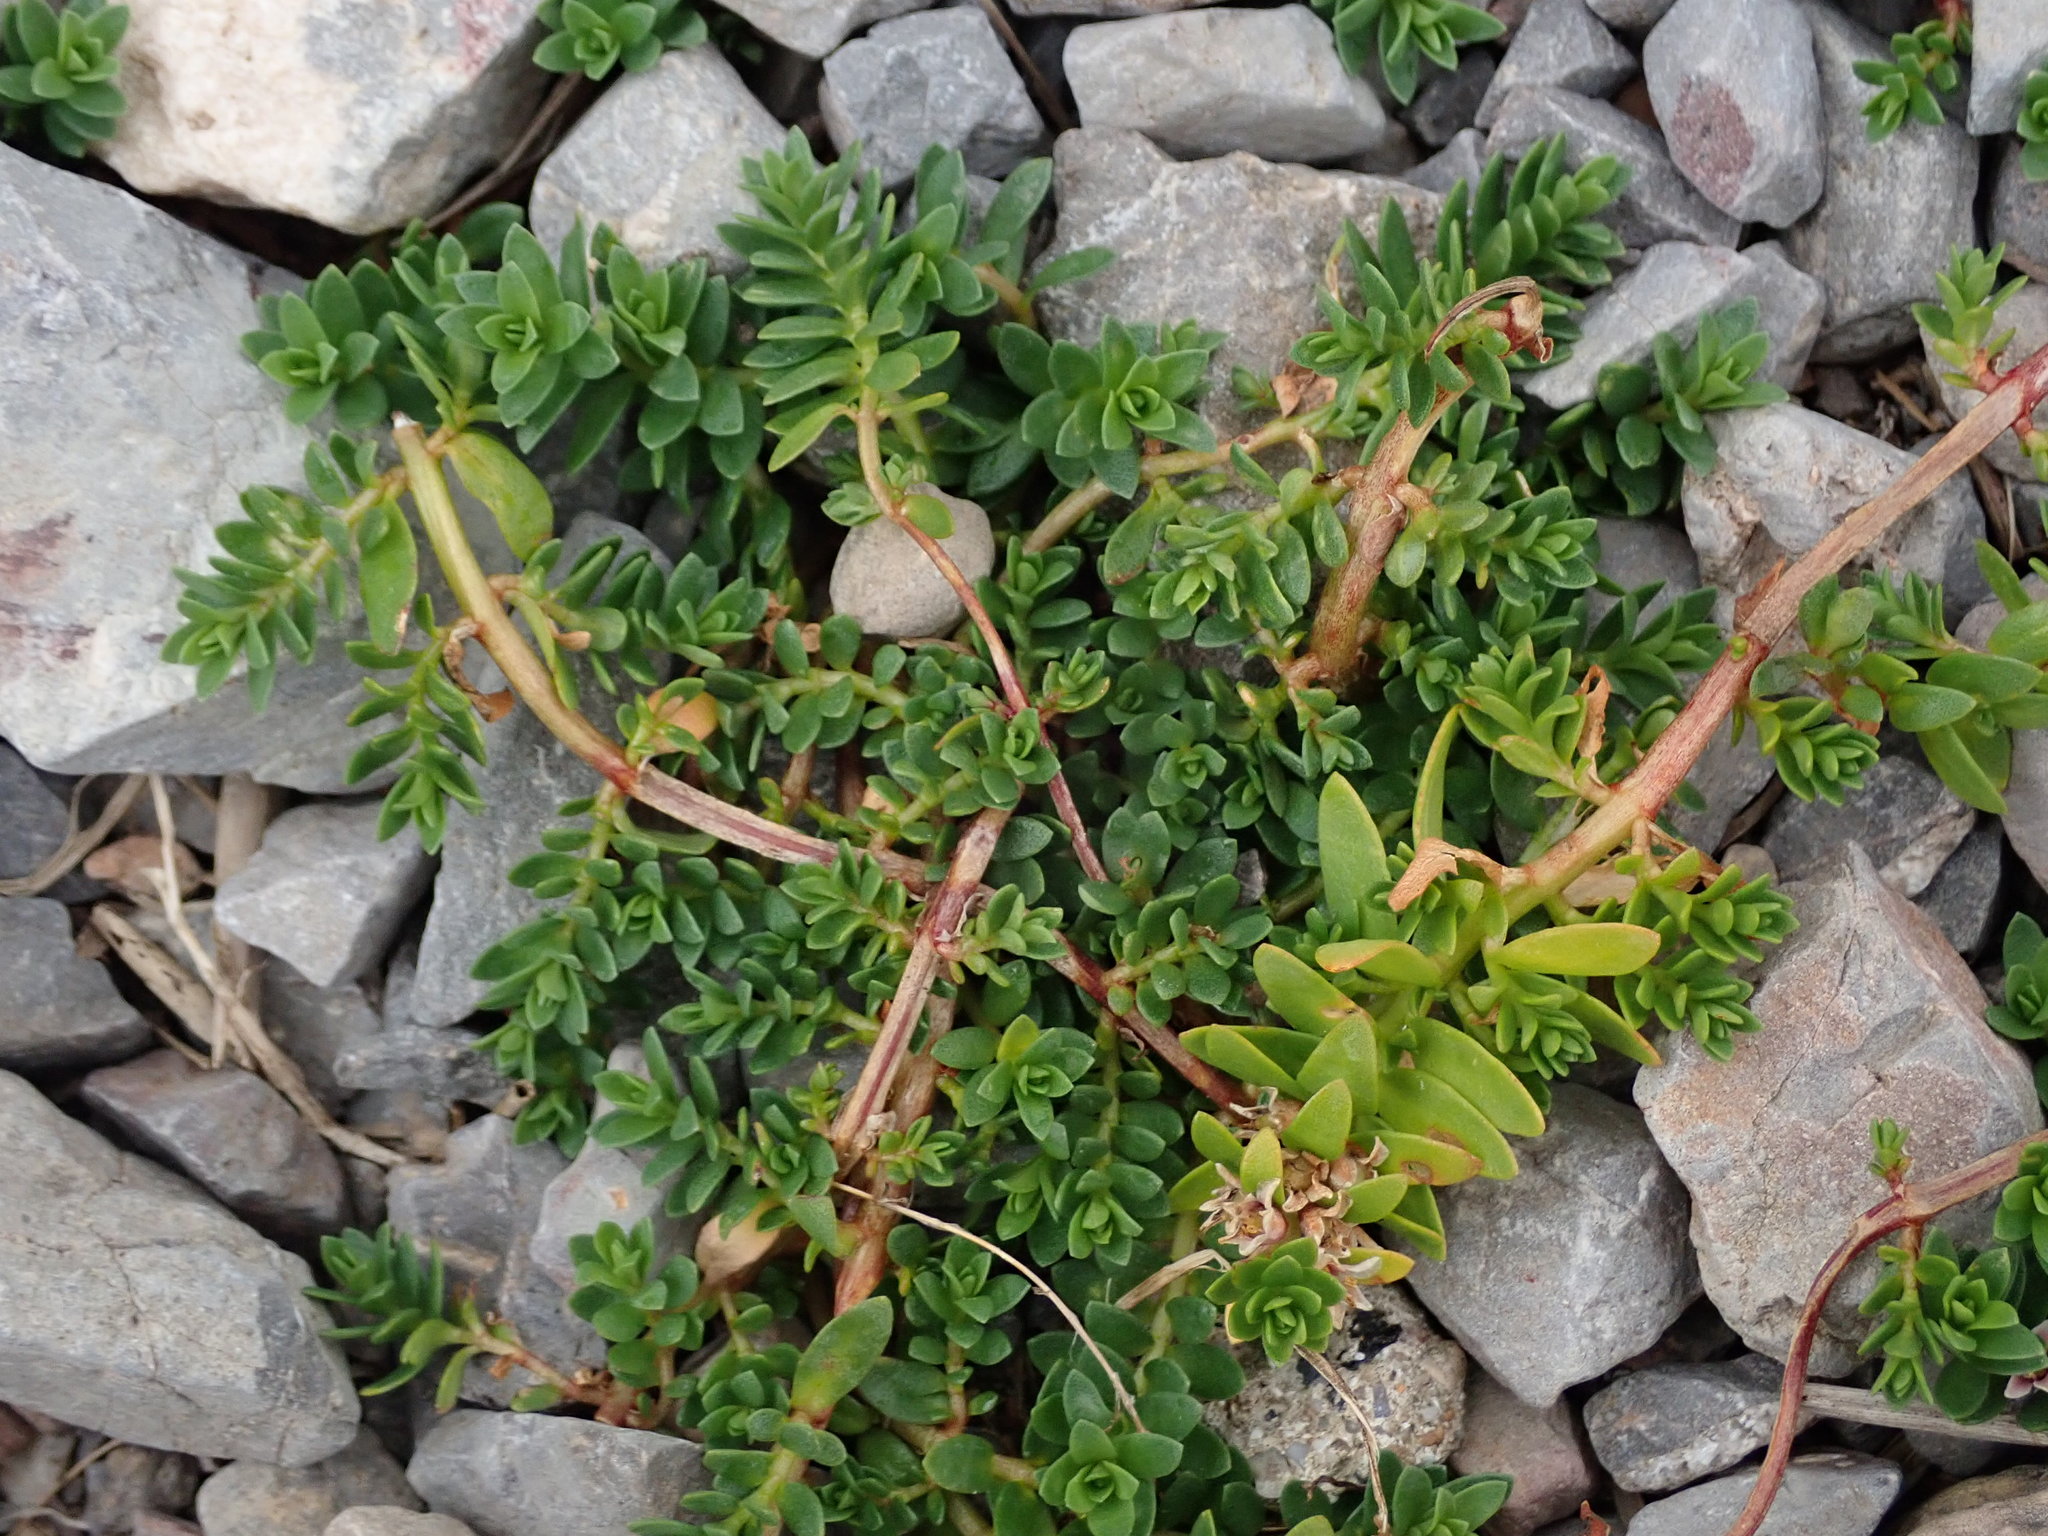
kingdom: Plantae
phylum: Tracheophyta
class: Magnoliopsida
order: Ericales
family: Primulaceae
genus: Lysimachia
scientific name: Lysimachia maritima
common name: Sea milkwort
